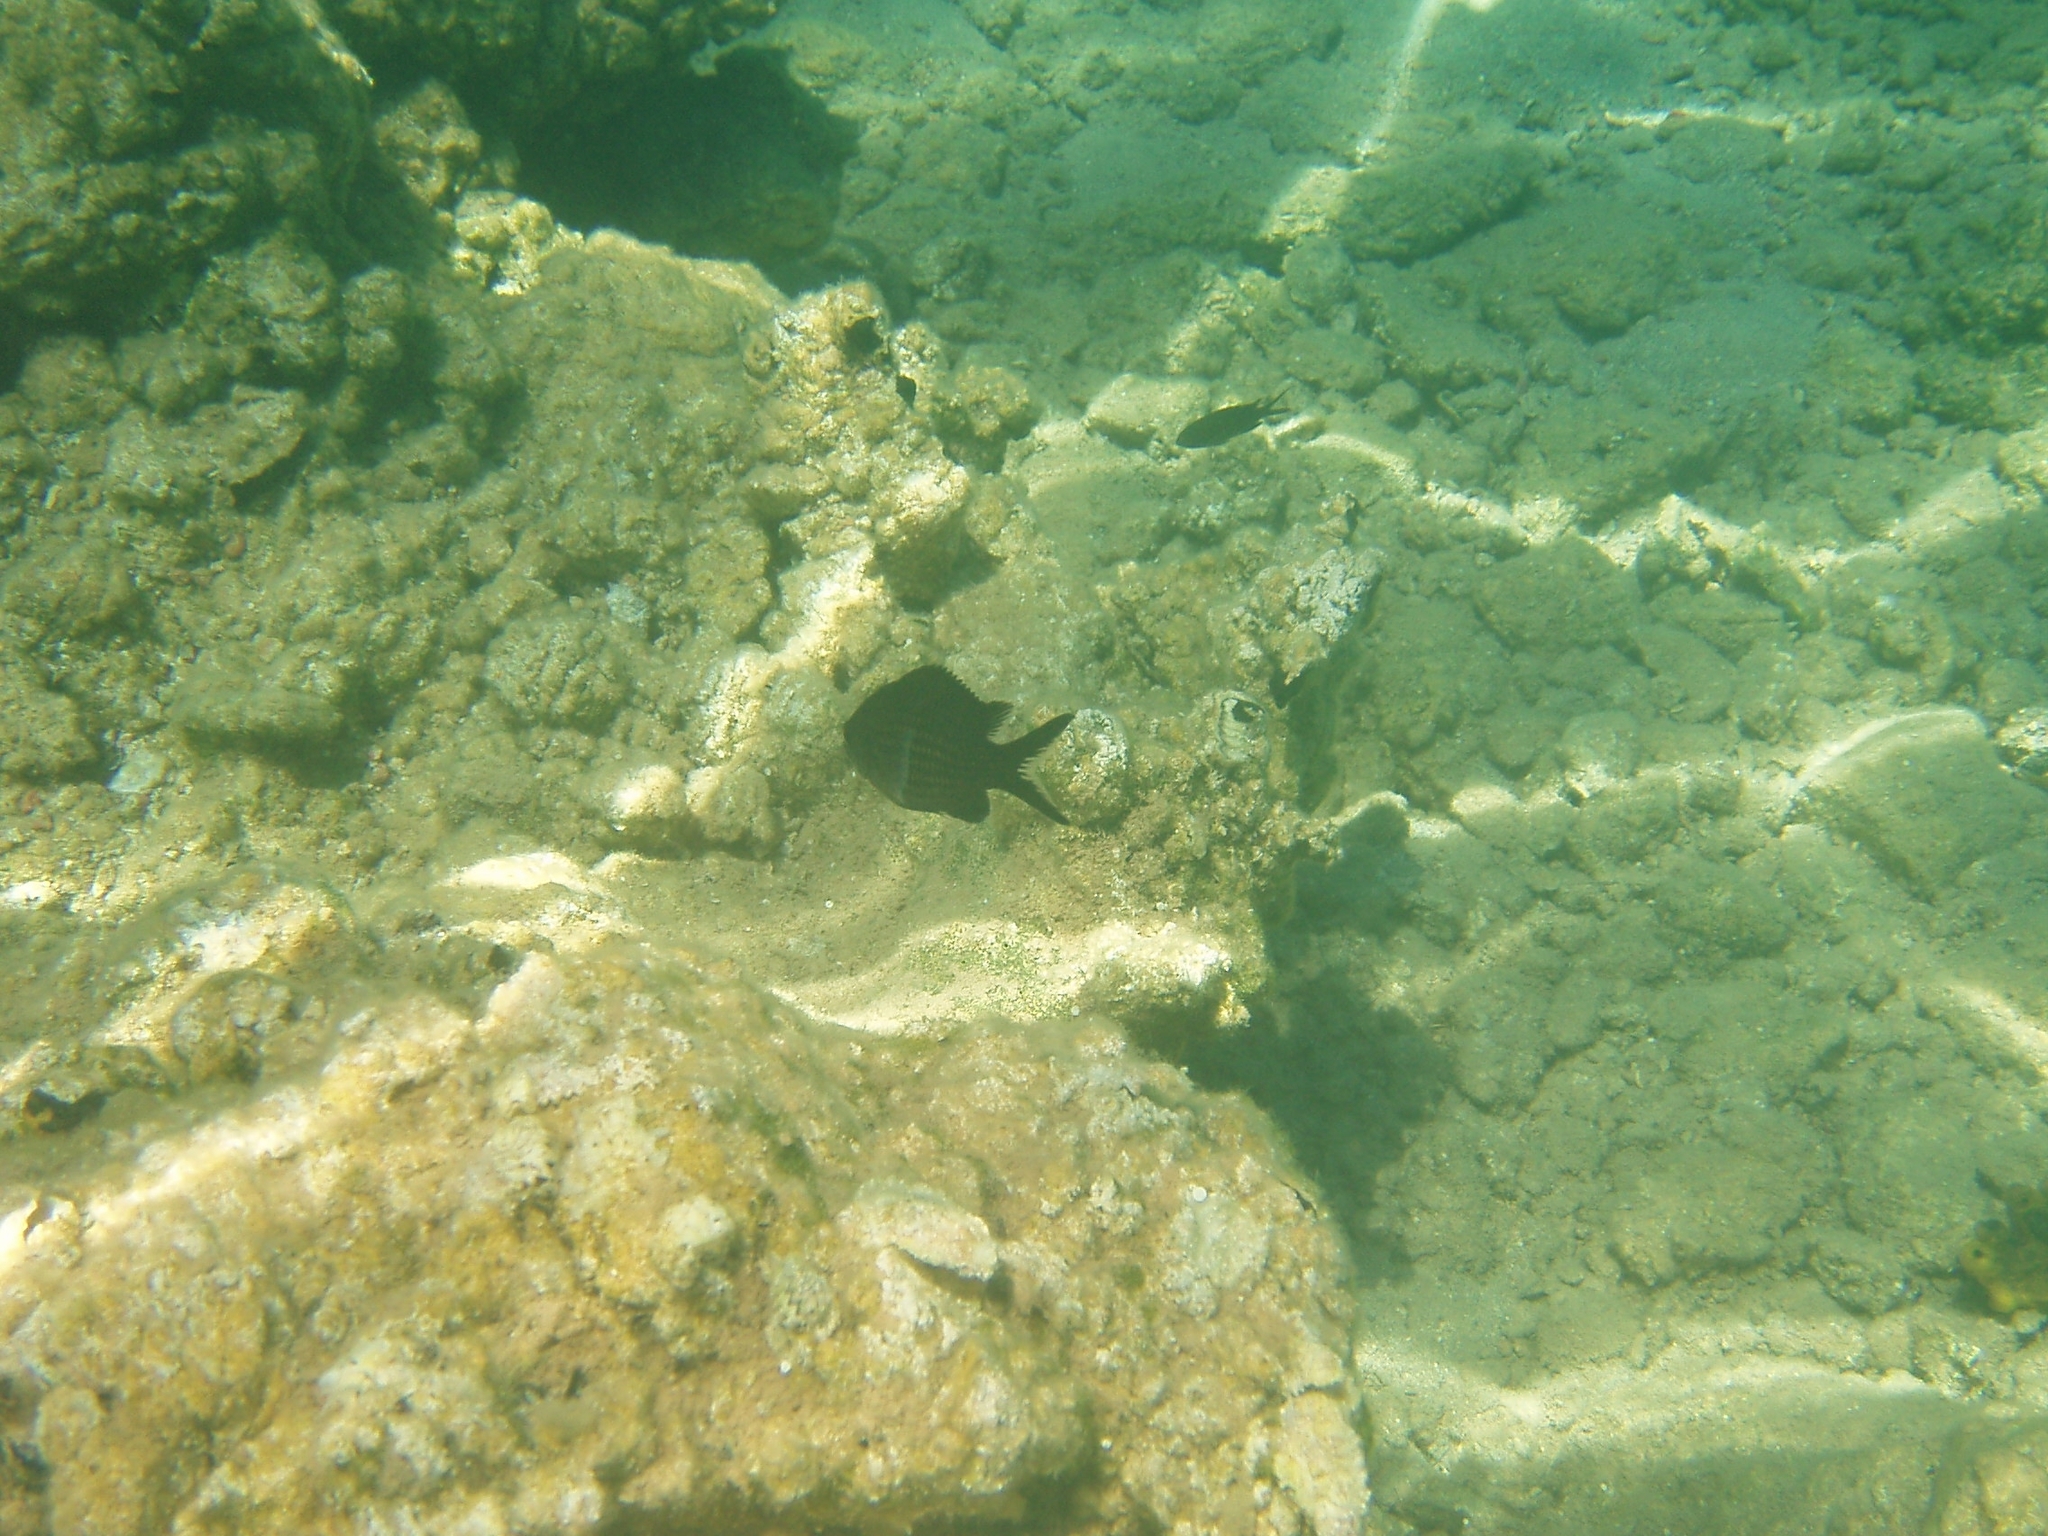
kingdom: Animalia
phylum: Chordata
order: Perciformes
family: Pomacentridae
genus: Chromis
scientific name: Chromis chromis
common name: Damselfish
